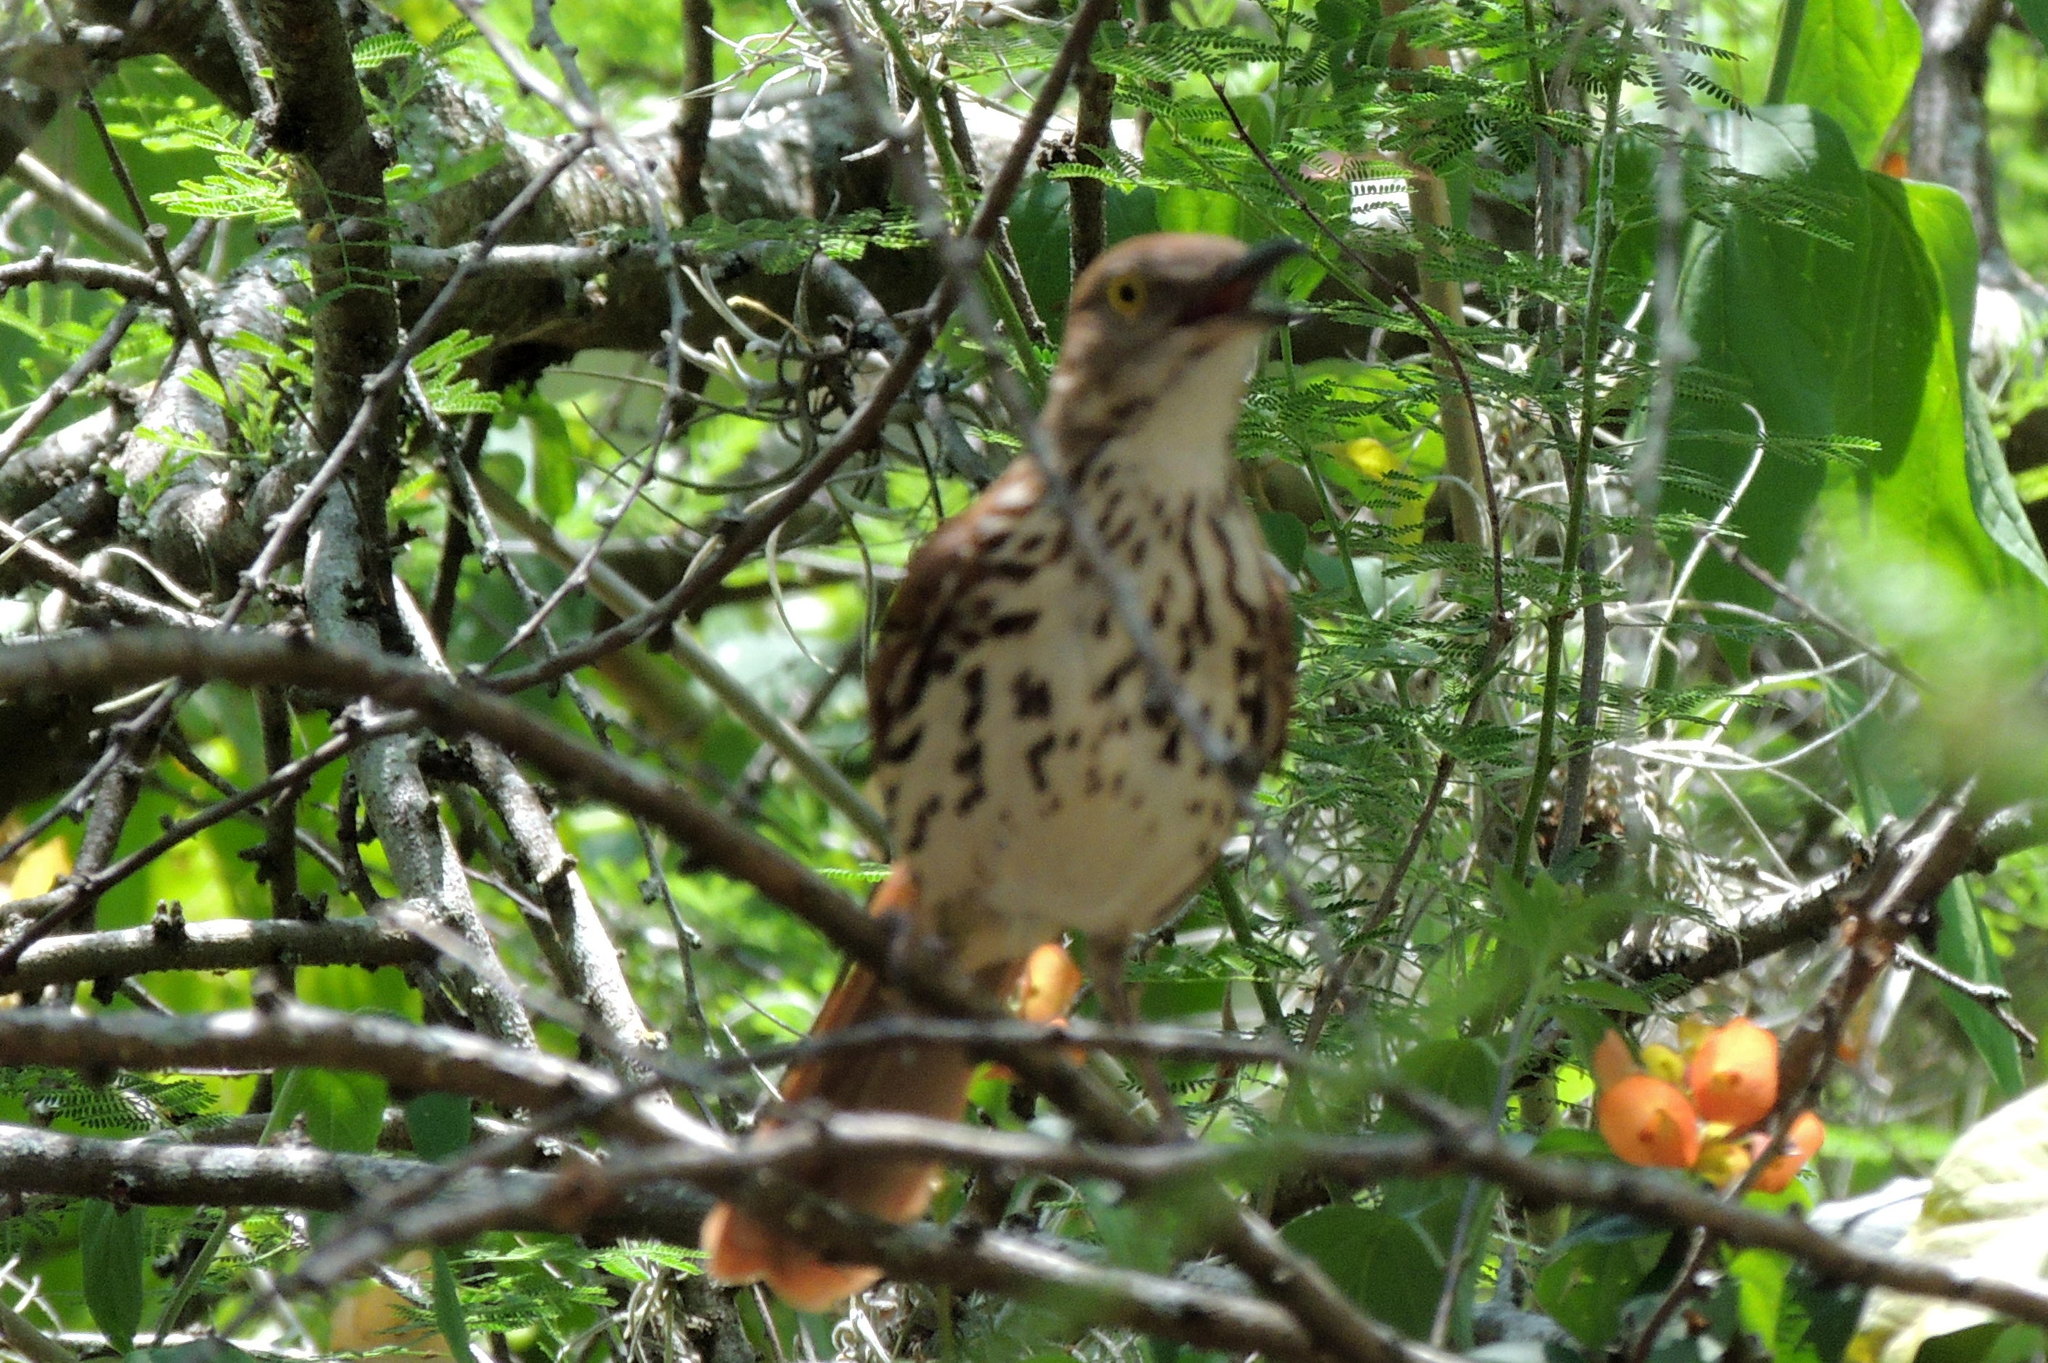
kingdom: Animalia
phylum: Chordata
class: Aves
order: Passeriformes
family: Mimidae
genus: Toxostoma
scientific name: Toxostoma rufum
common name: Brown thrasher
